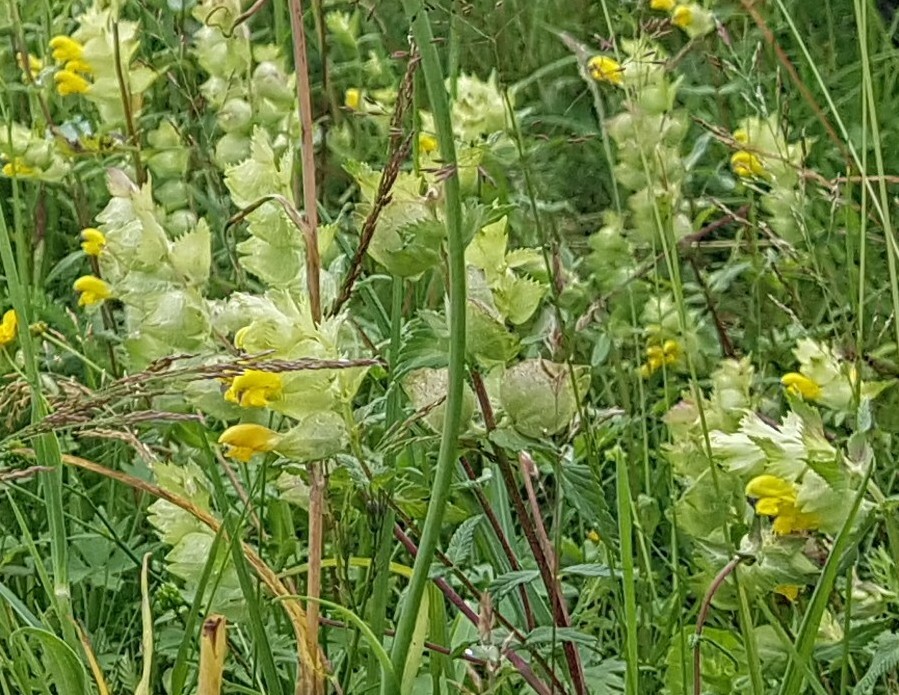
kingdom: Plantae
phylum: Tracheophyta
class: Magnoliopsida
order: Lamiales
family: Orobanchaceae
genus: Rhinanthus
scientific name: Rhinanthus alectorolophus
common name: Greater yellow-rattle
